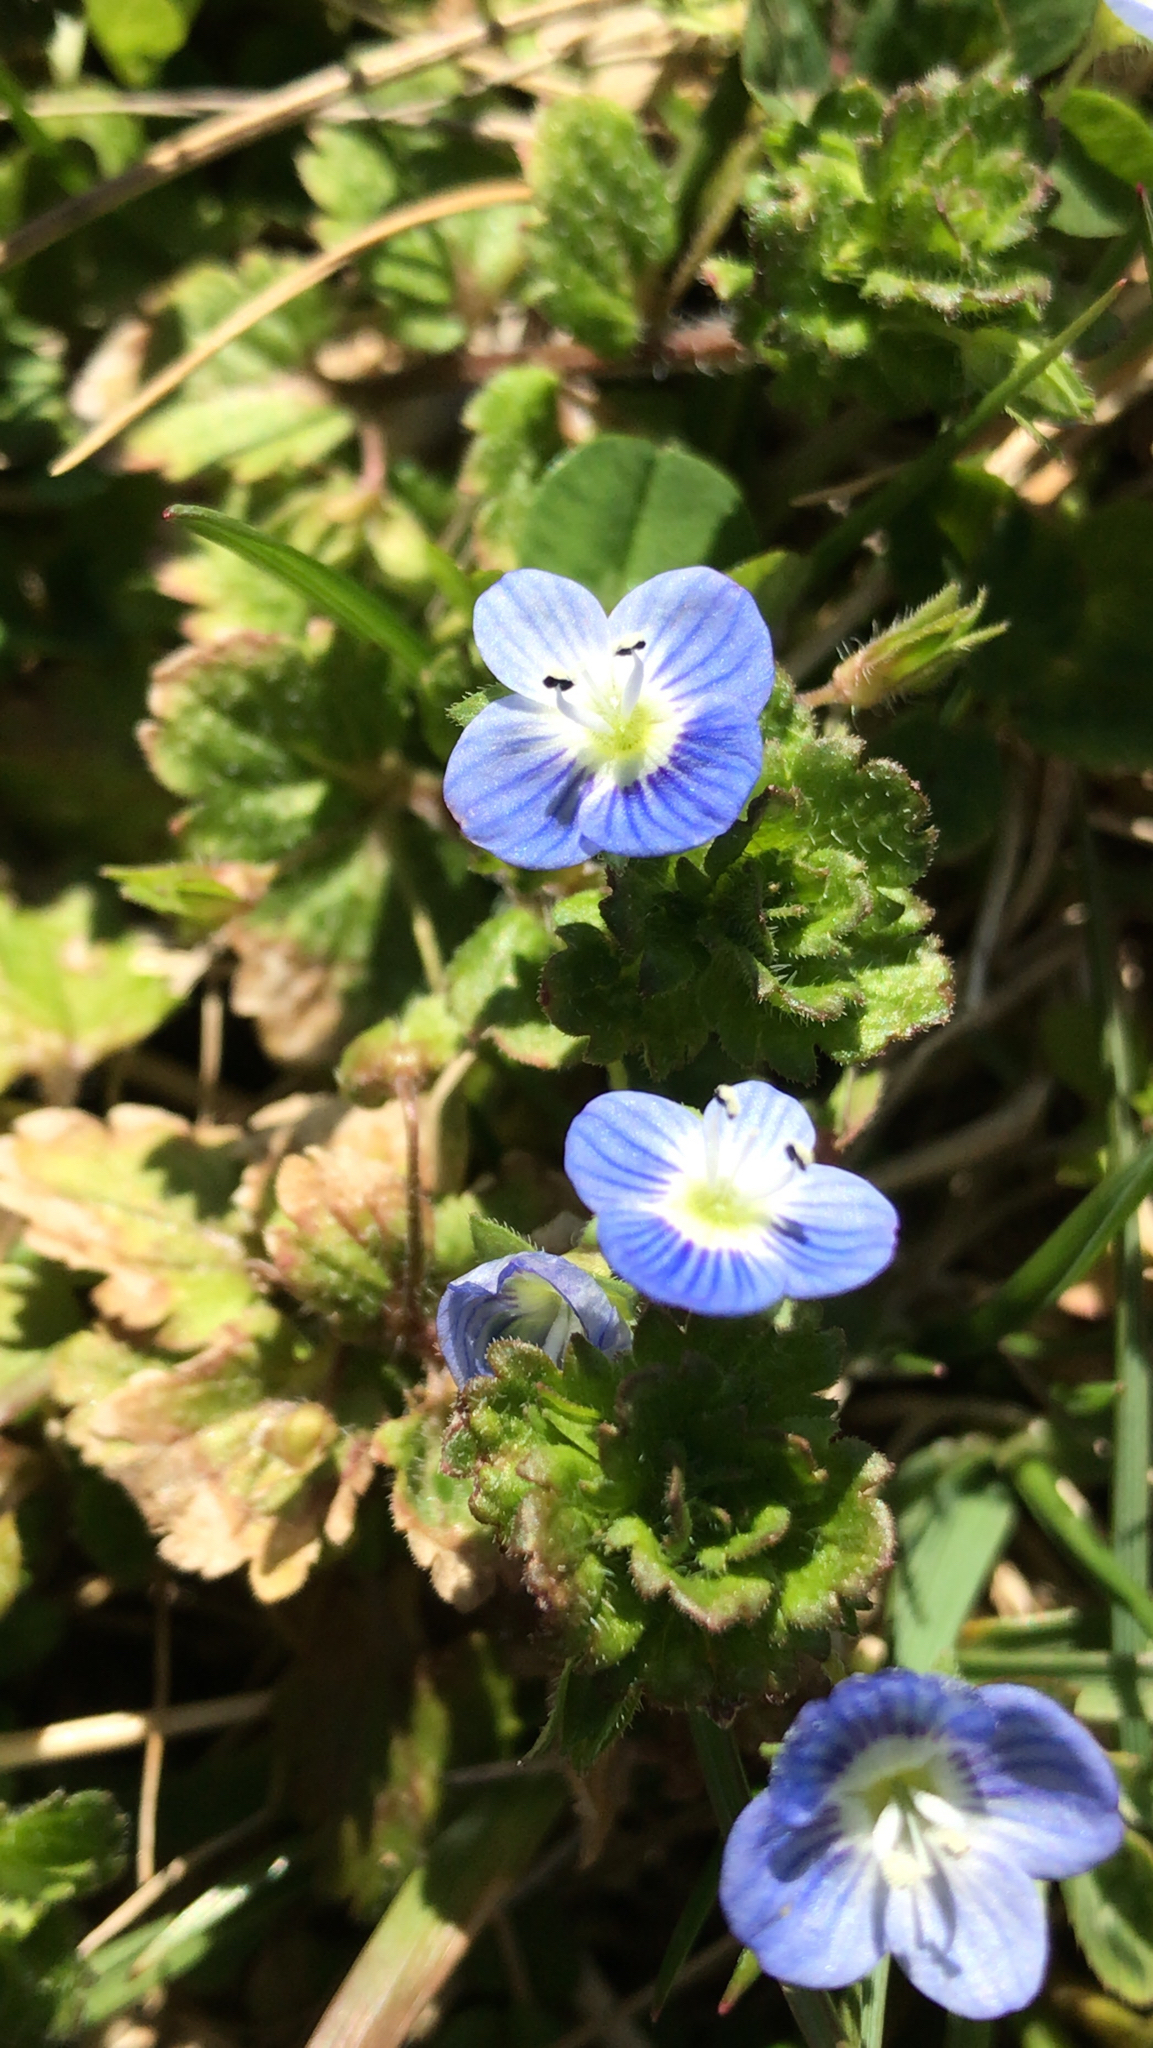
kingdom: Plantae
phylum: Tracheophyta
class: Magnoliopsida
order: Lamiales
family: Plantaginaceae
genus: Veronica
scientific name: Veronica persica
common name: Common field-speedwell
